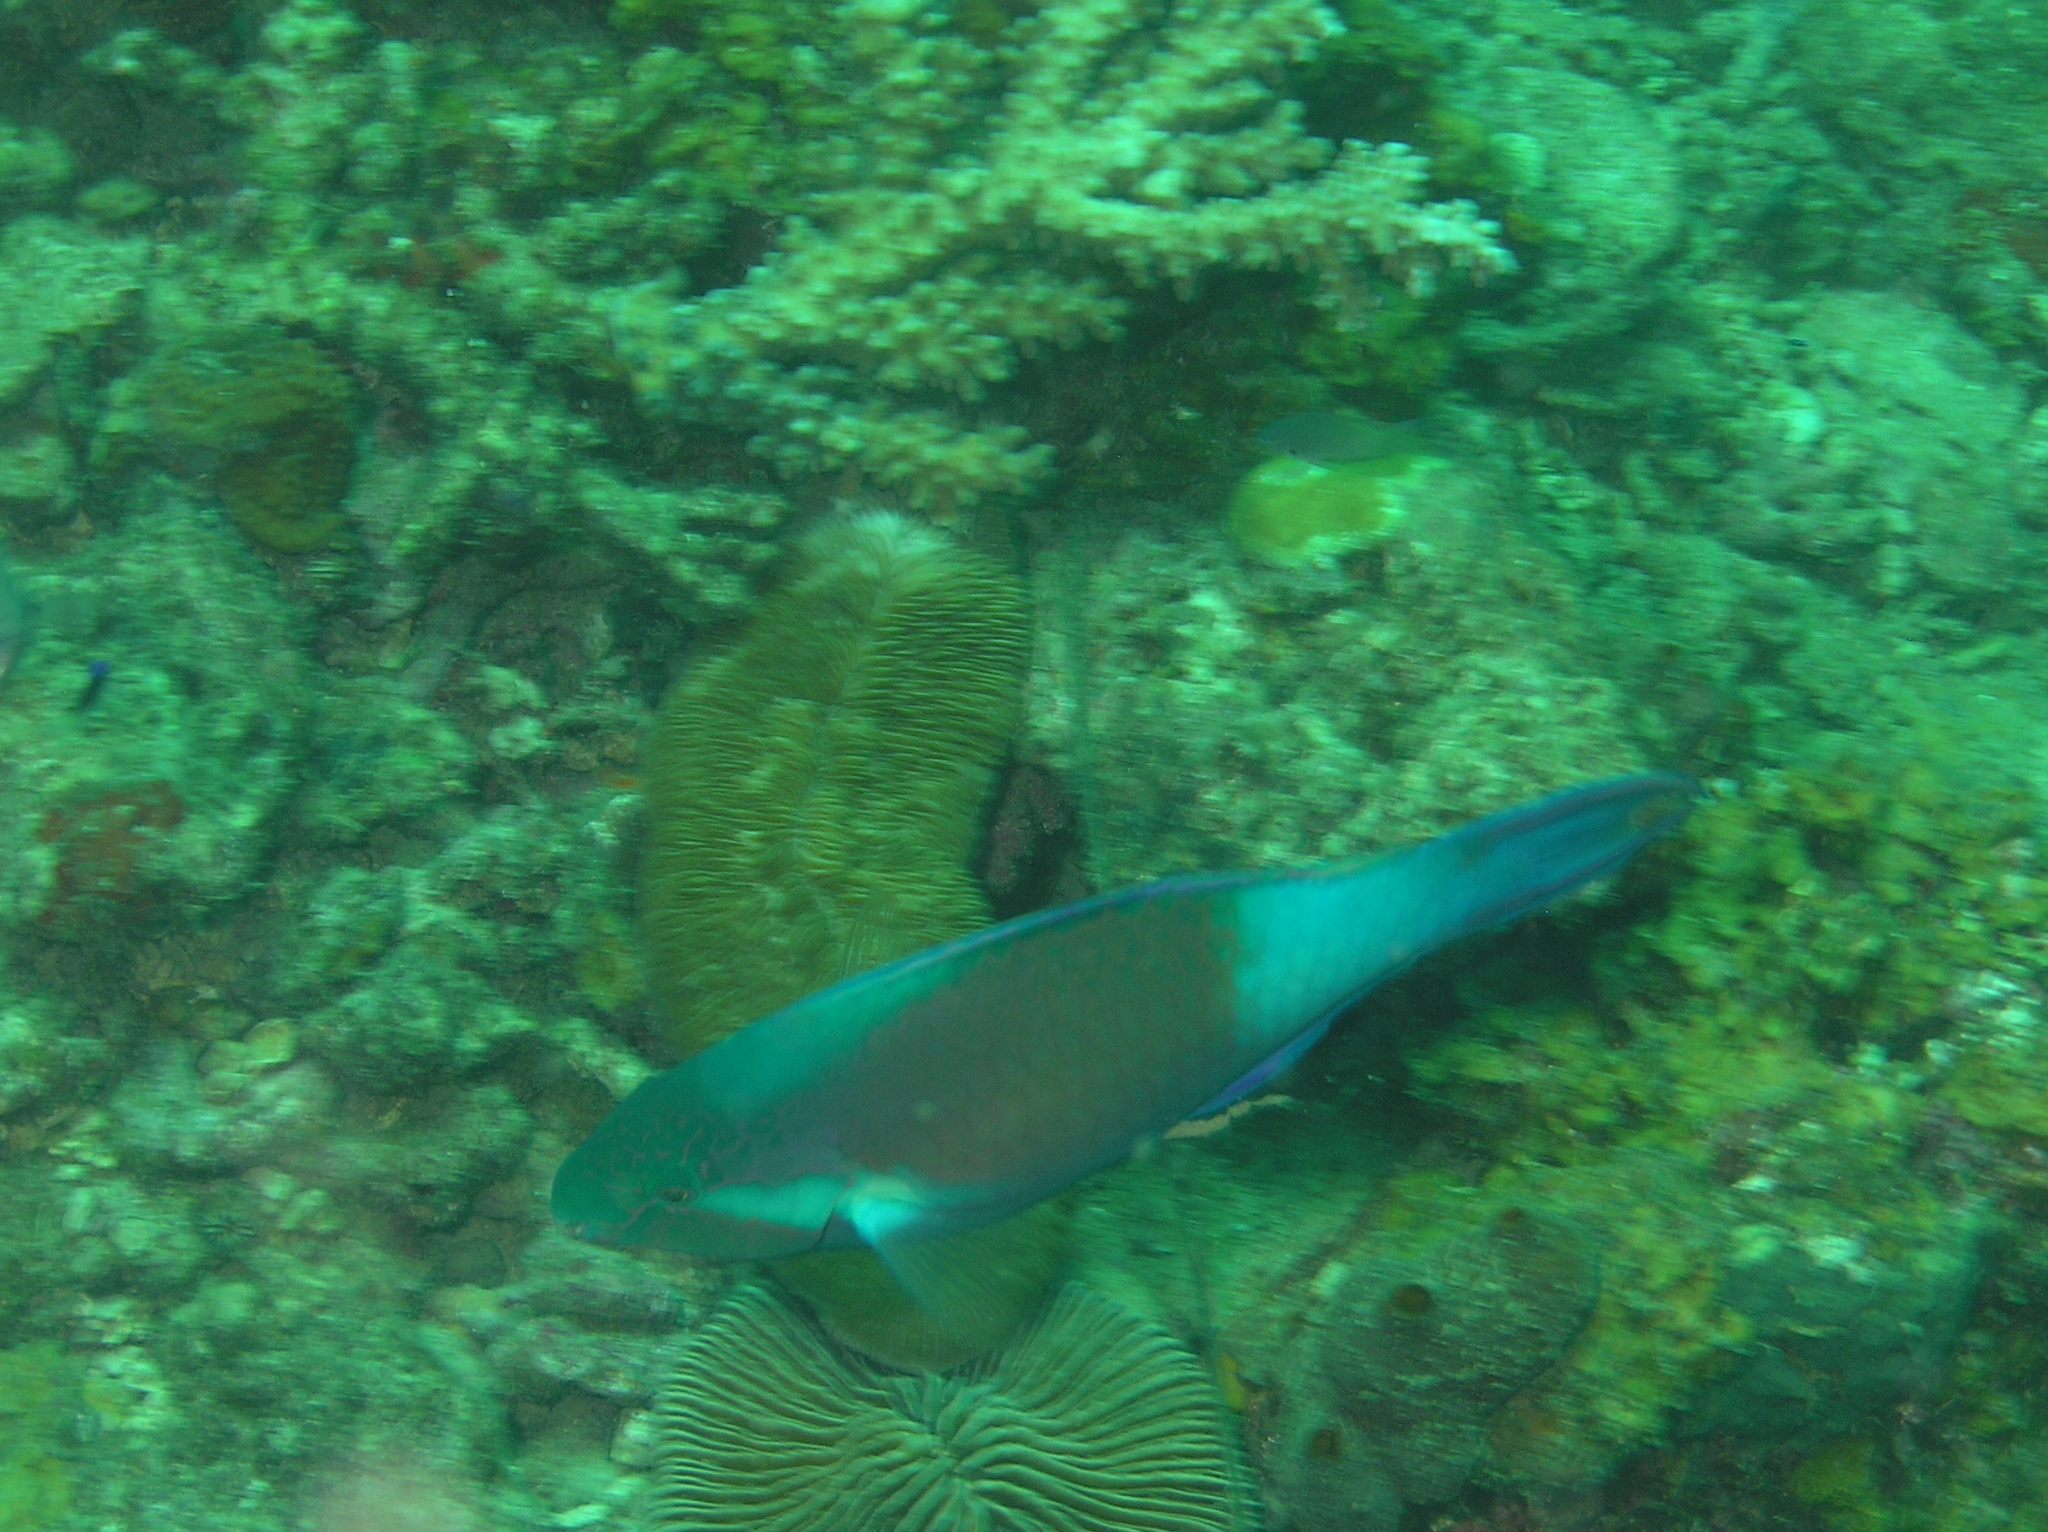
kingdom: Animalia
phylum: Chordata
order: Perciformes
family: Scaridae
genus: Scarus
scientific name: Scarus hypselopterus
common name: Java parrotfish
